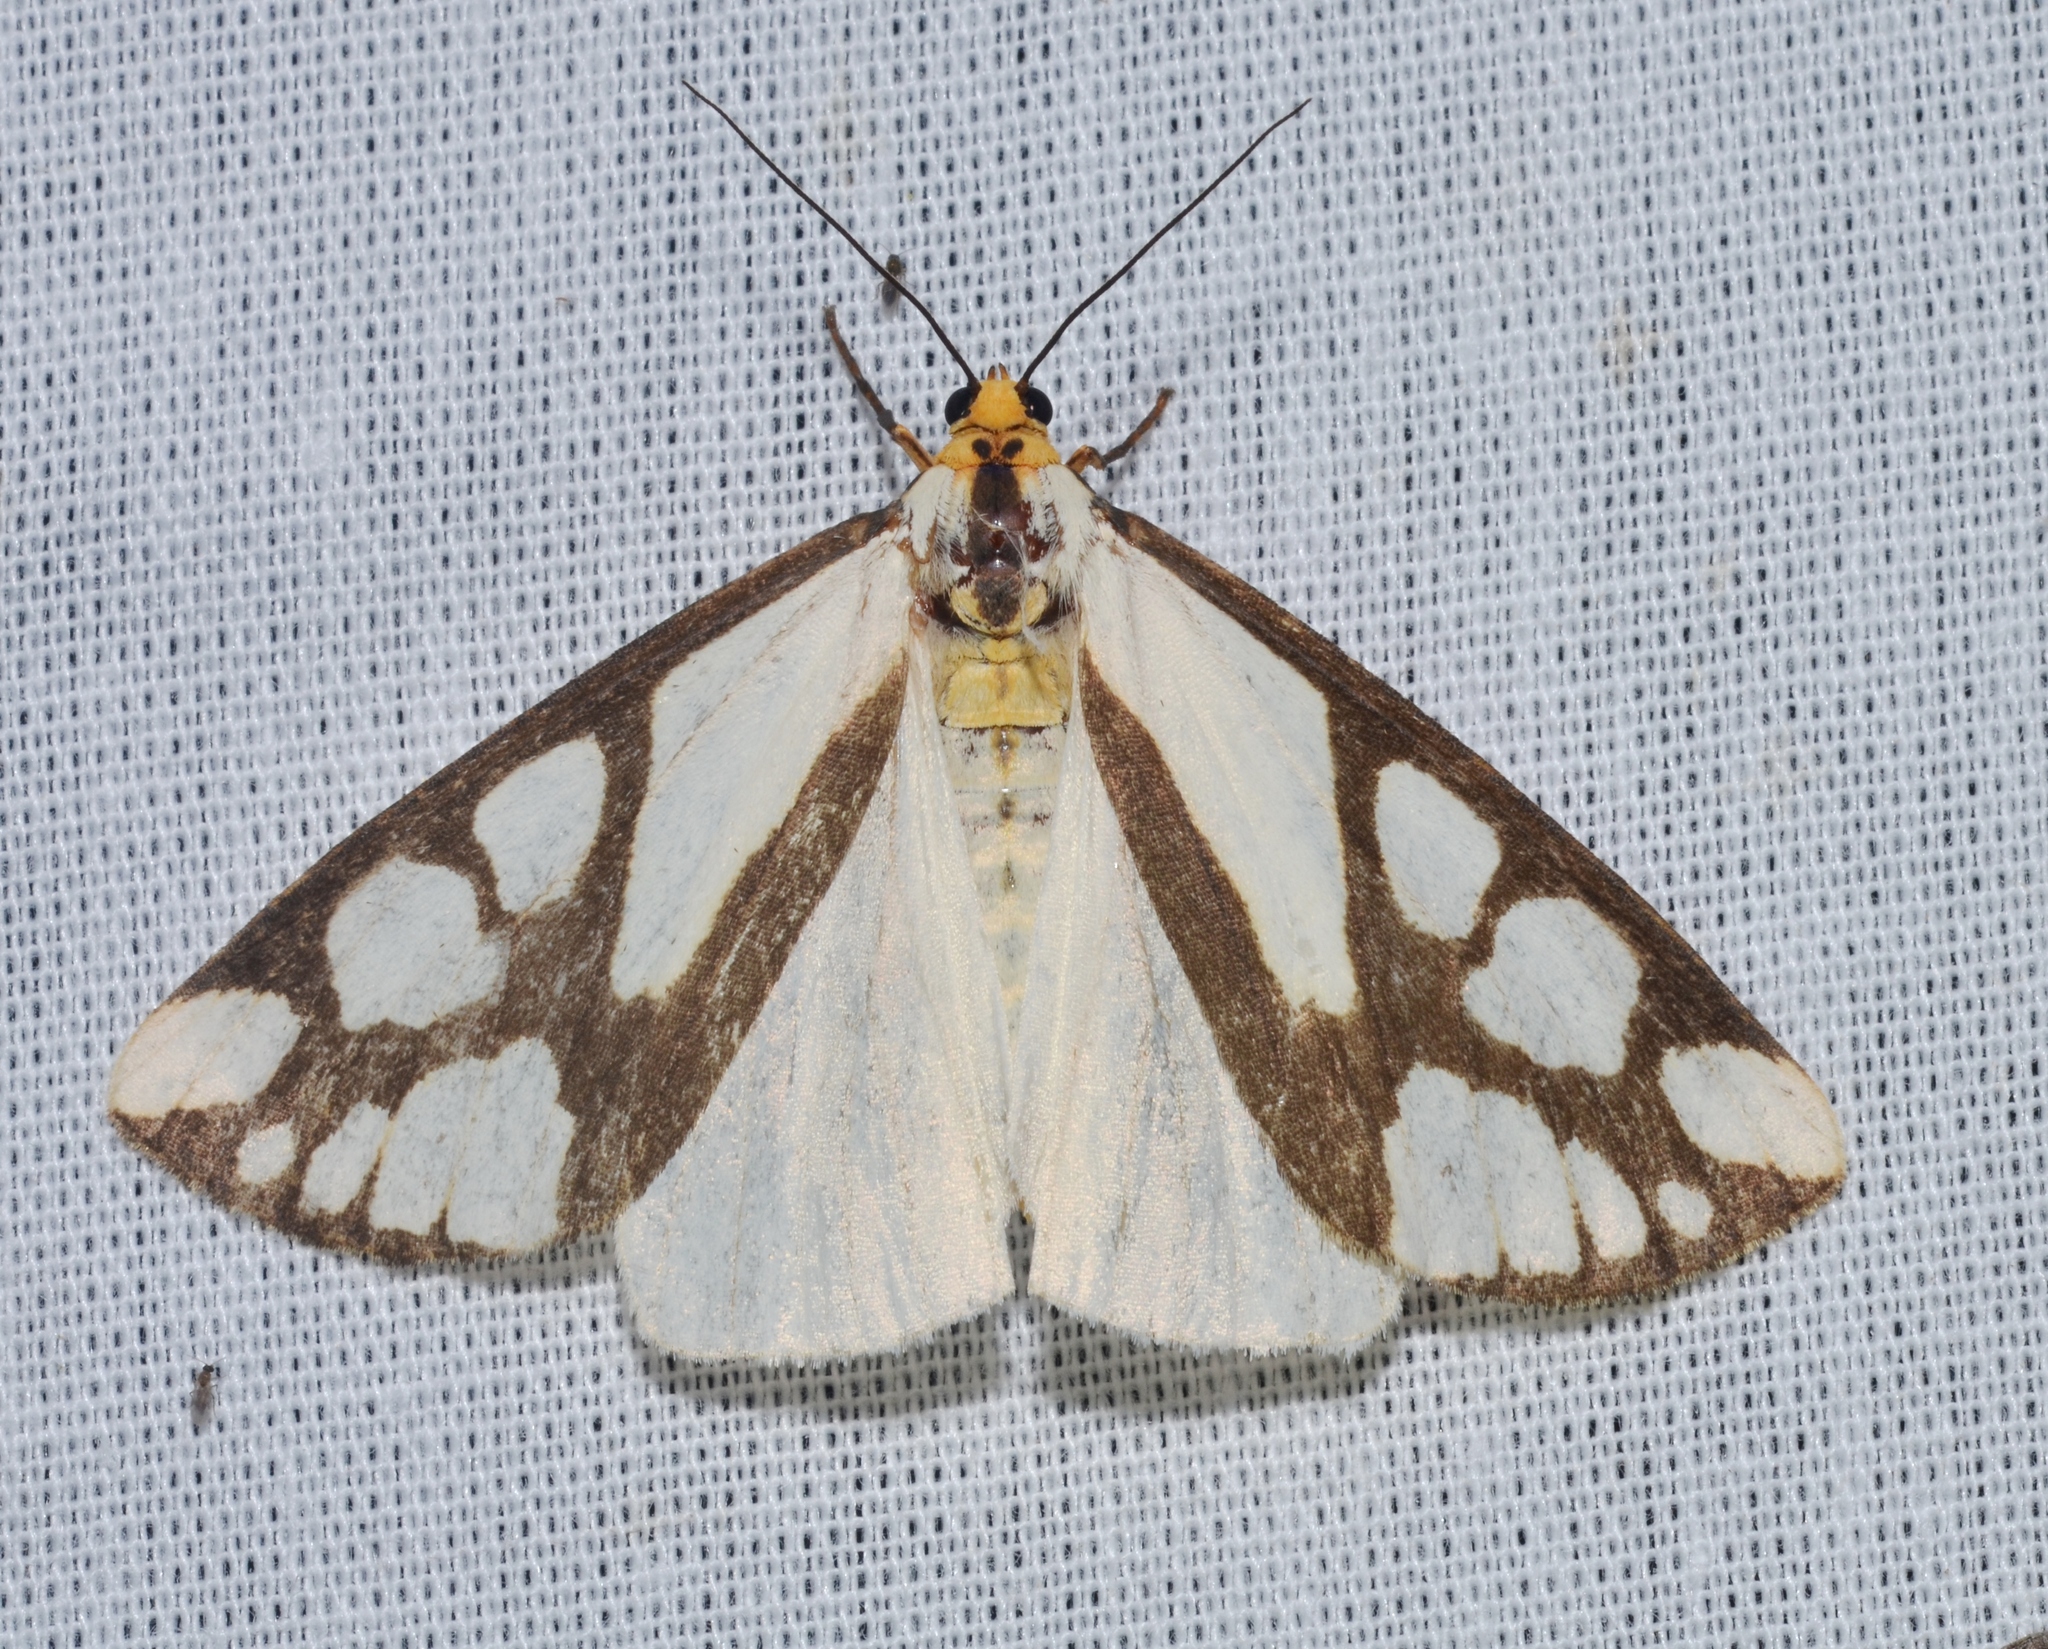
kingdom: Animalia
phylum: Arthropoda
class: Insecta
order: Lepidoptera
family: Erebidae
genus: Haploa
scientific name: Haploa reversa
